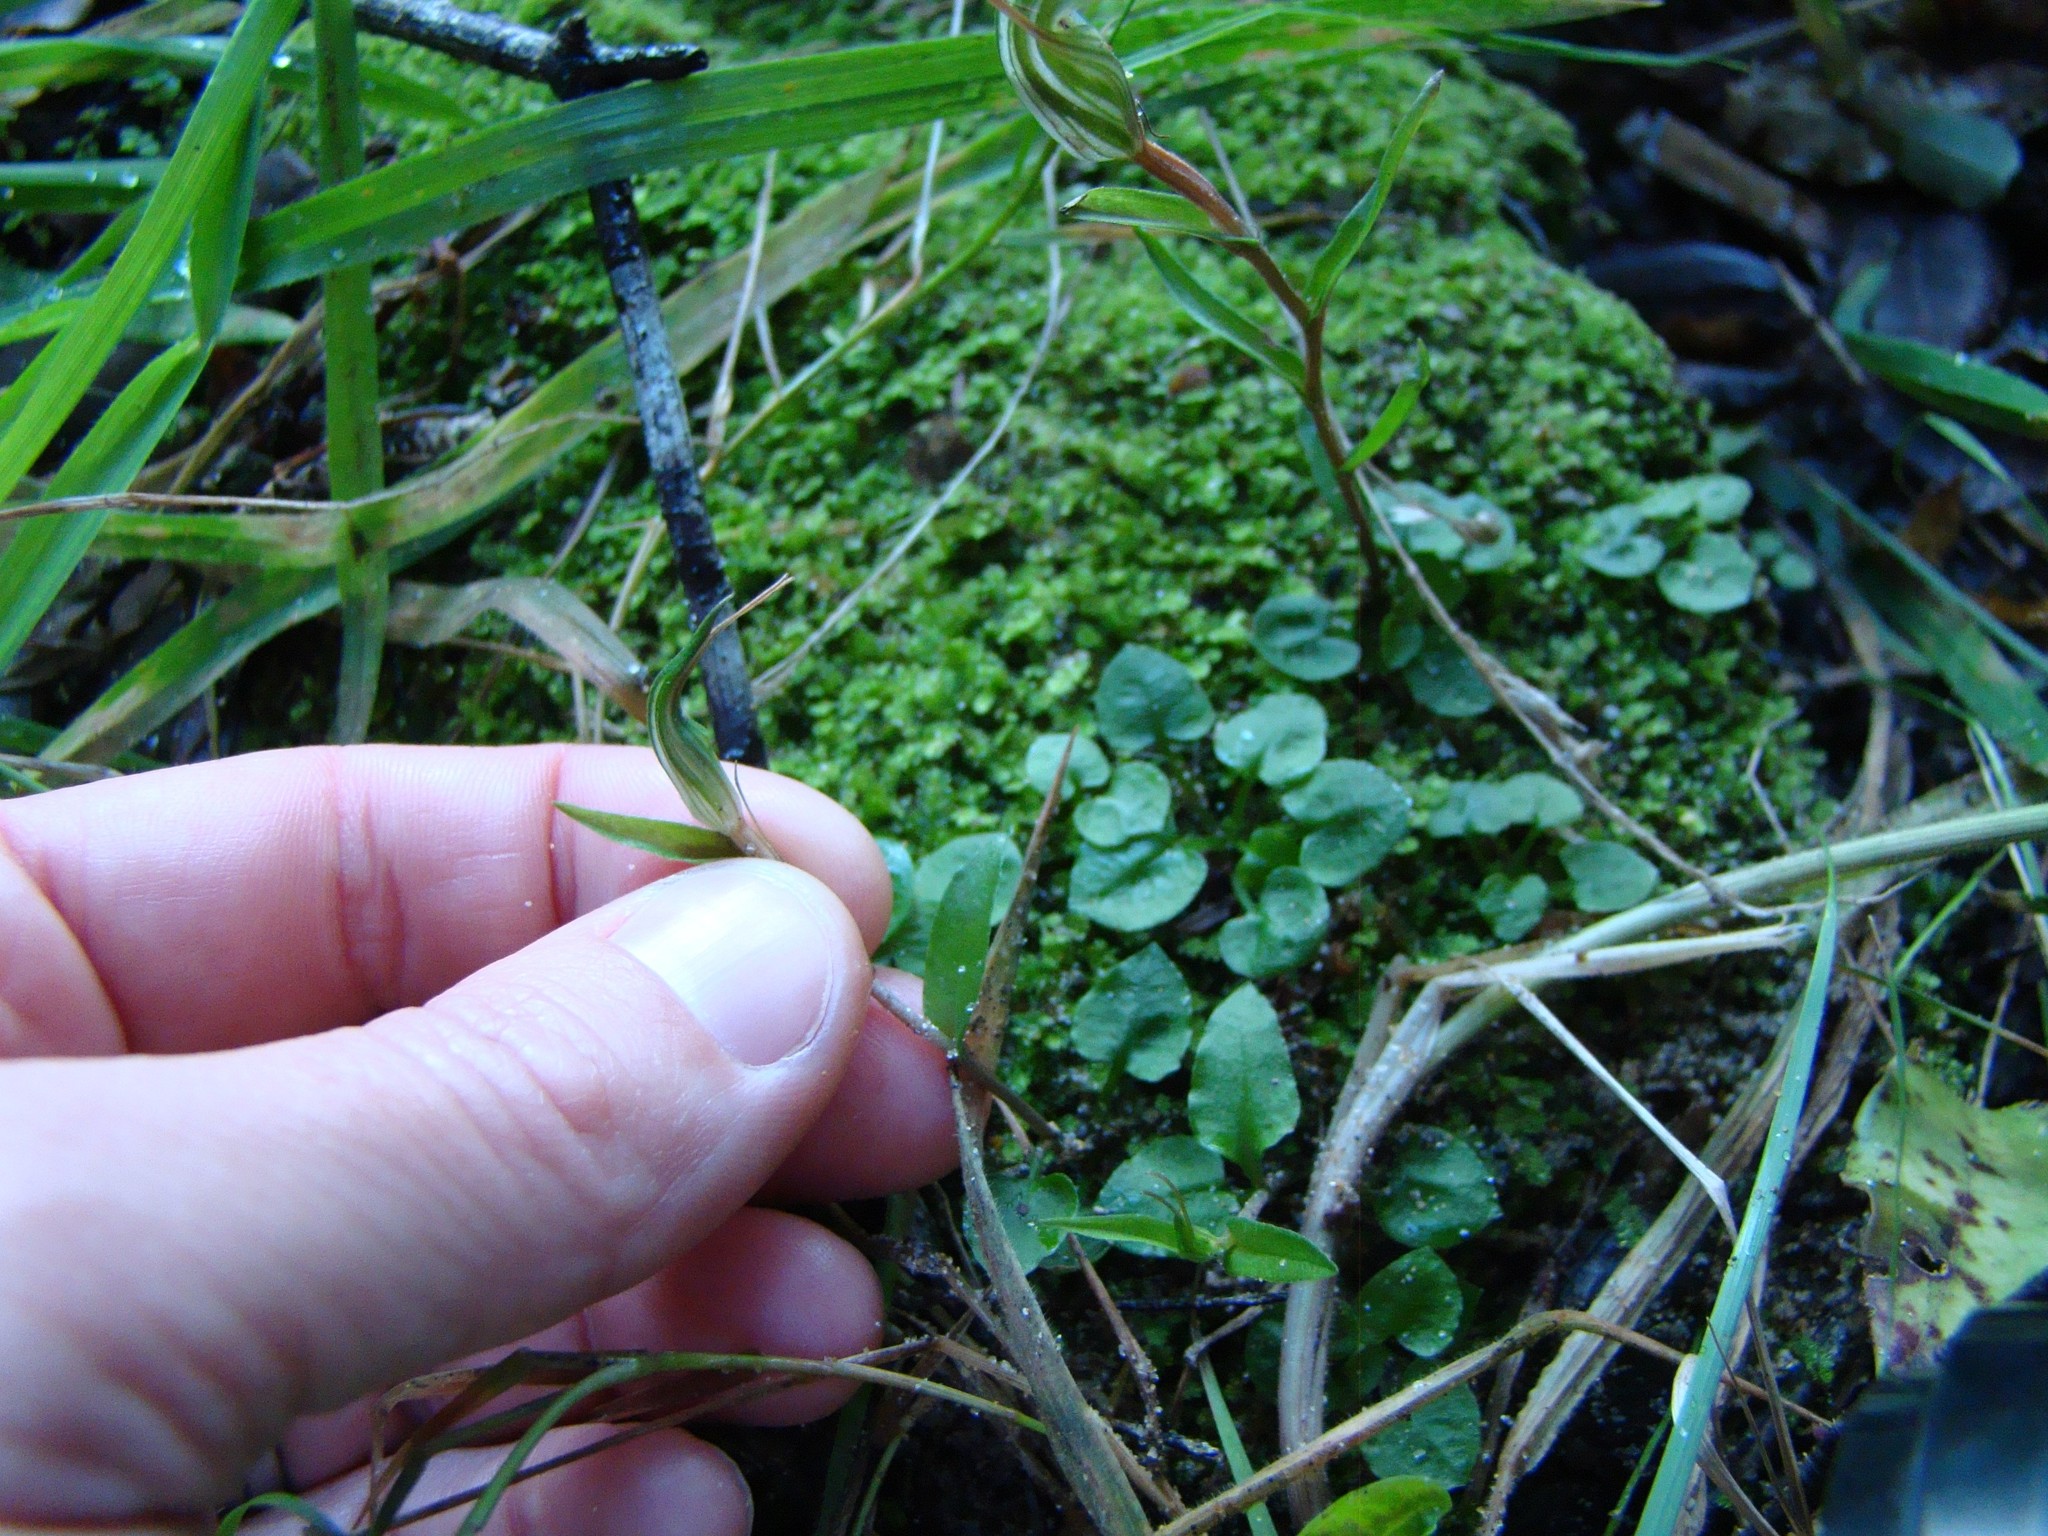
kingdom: Plantae
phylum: Tracheophyta
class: Liliopsida
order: Asparagales
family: Orchidaceae
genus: Pterostylis
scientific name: Pterostylis alobula
